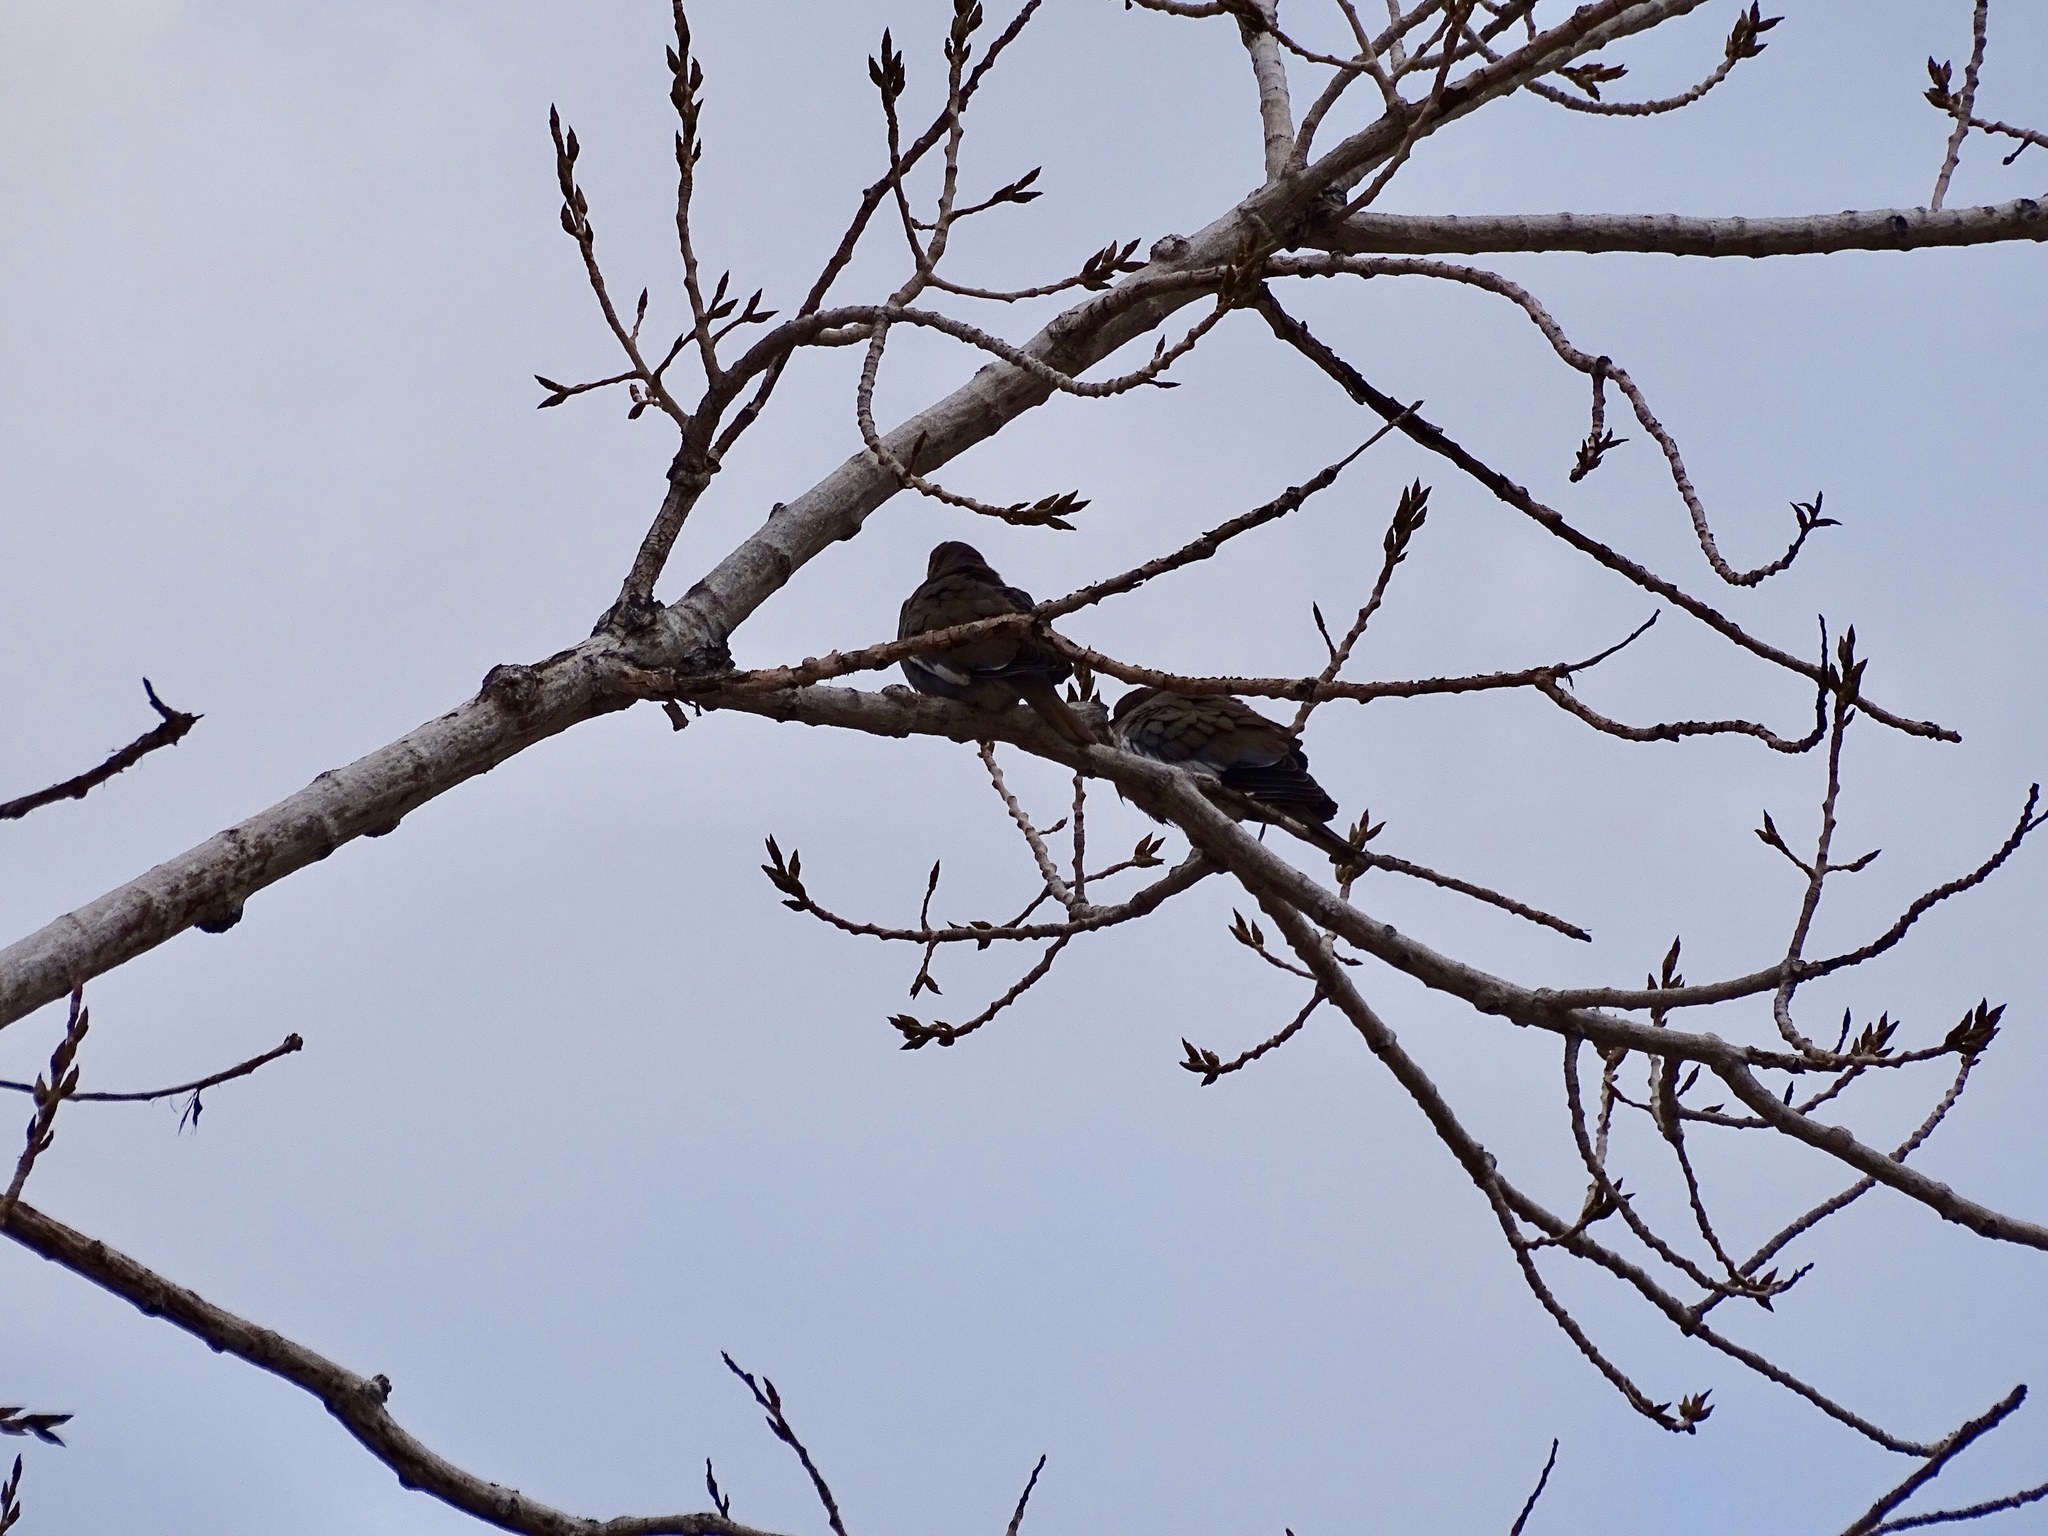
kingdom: Animalia
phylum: Chordata
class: Aves
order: Columbiformes
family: Columbidae
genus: Zenaida
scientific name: Zenaida asiatica
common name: White-winged dove
